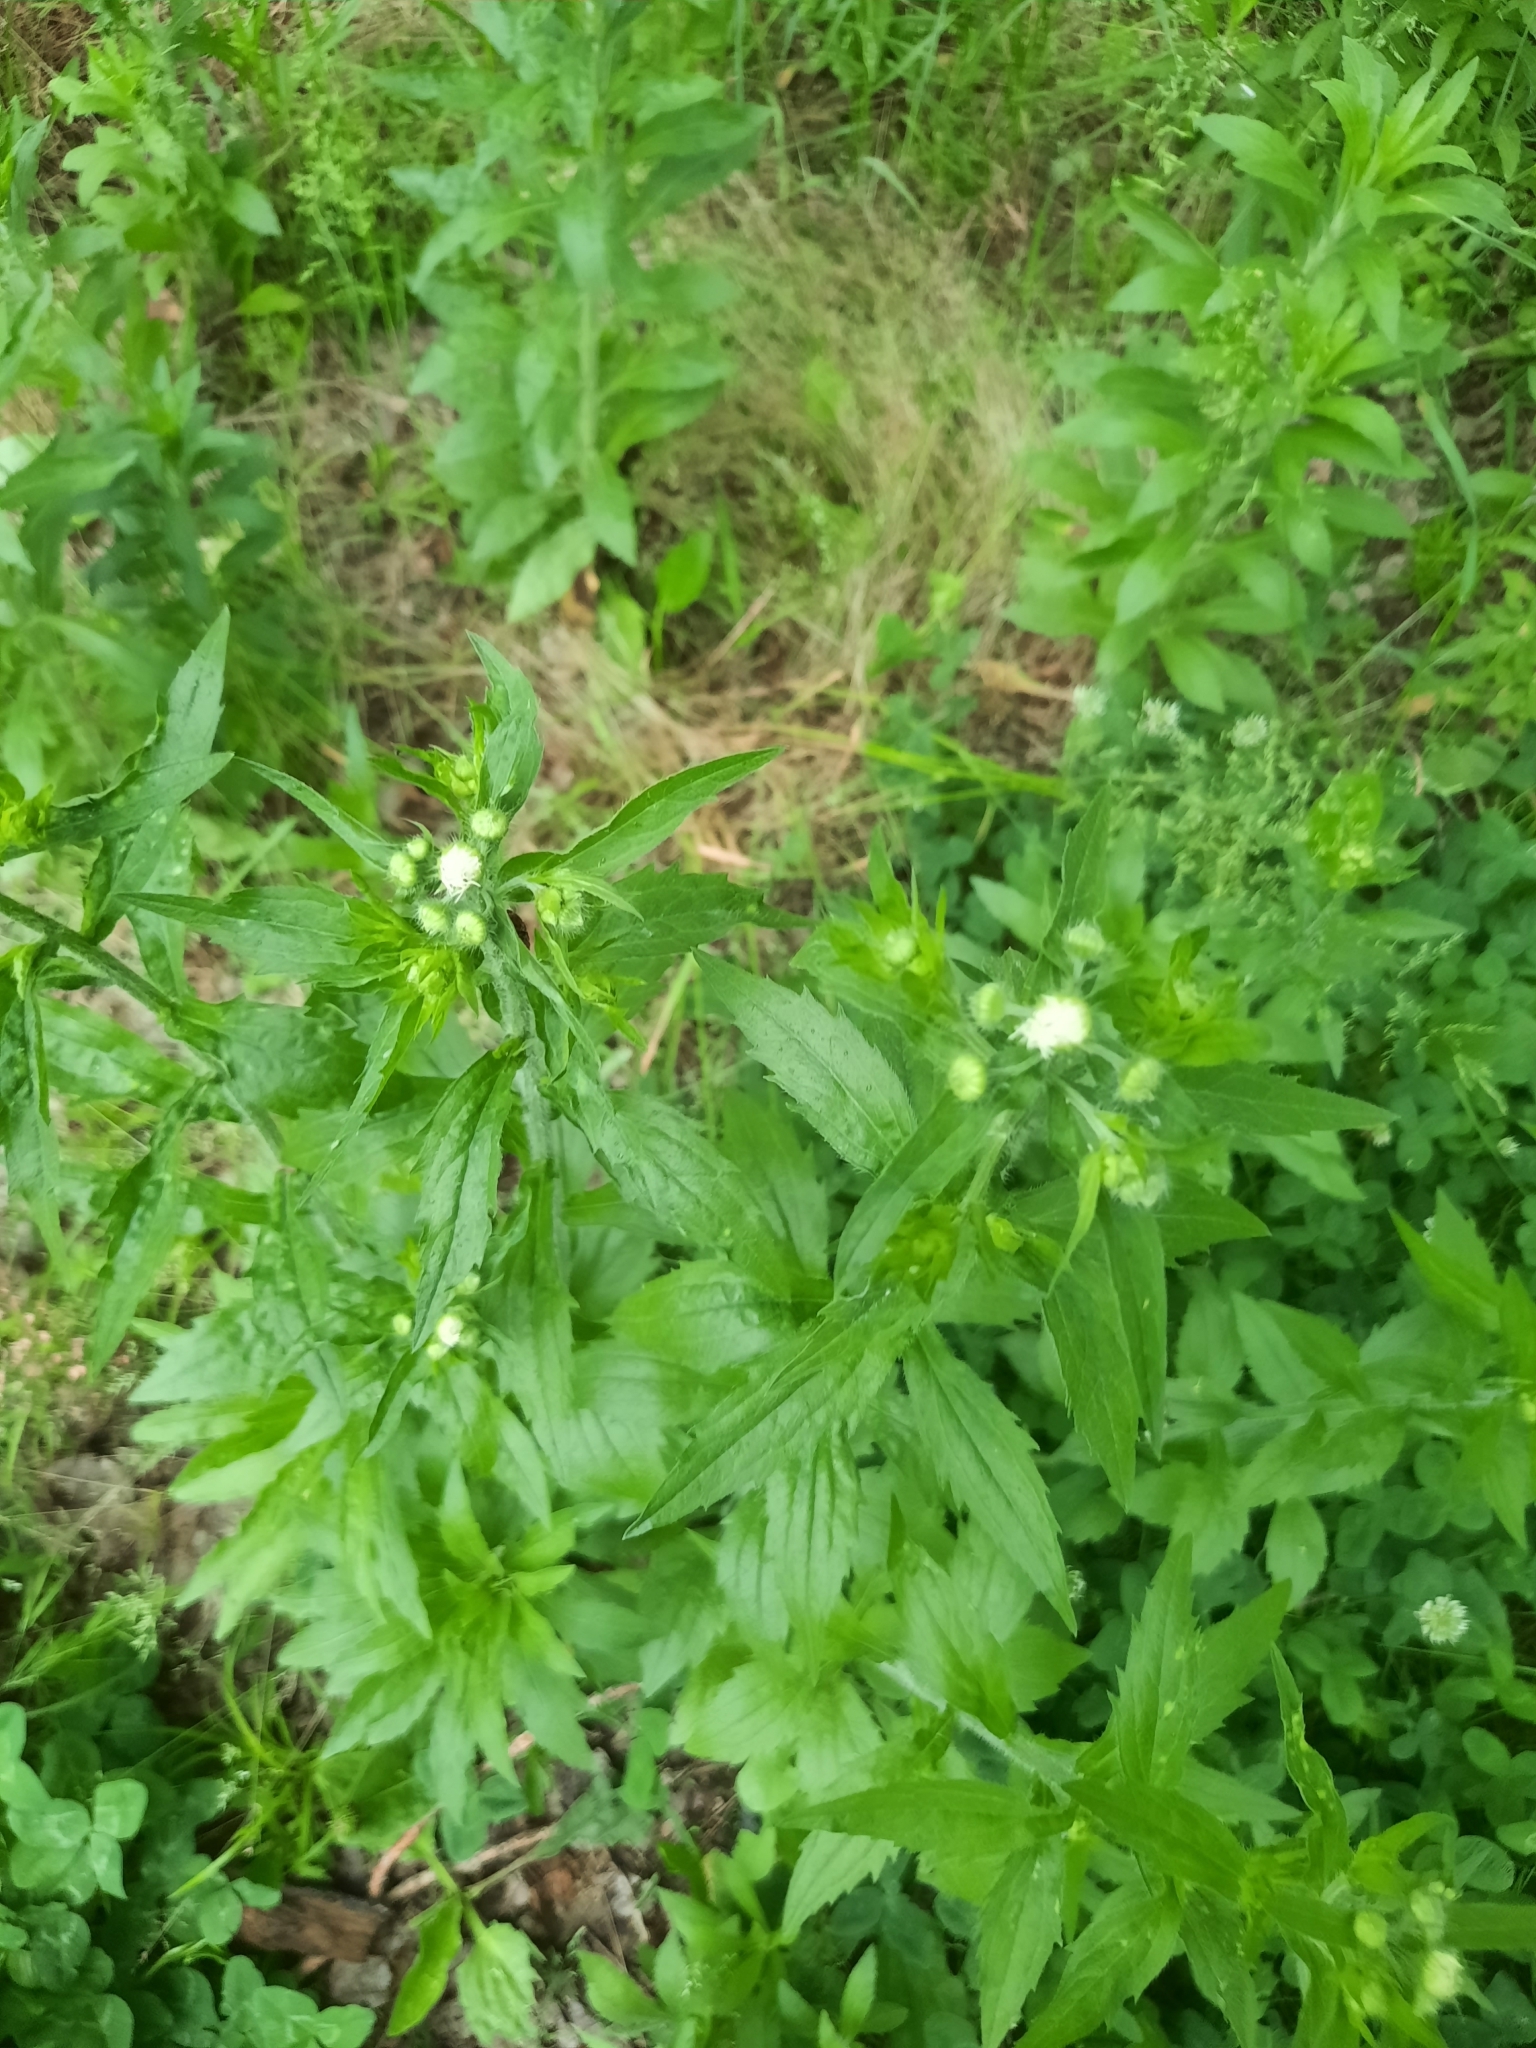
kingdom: Plantae
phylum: Tracheophyta
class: Magnoliopsida
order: Asterales
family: Asteraceae
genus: Erigeron
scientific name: Erigeron annuus
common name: Tall fleabane
